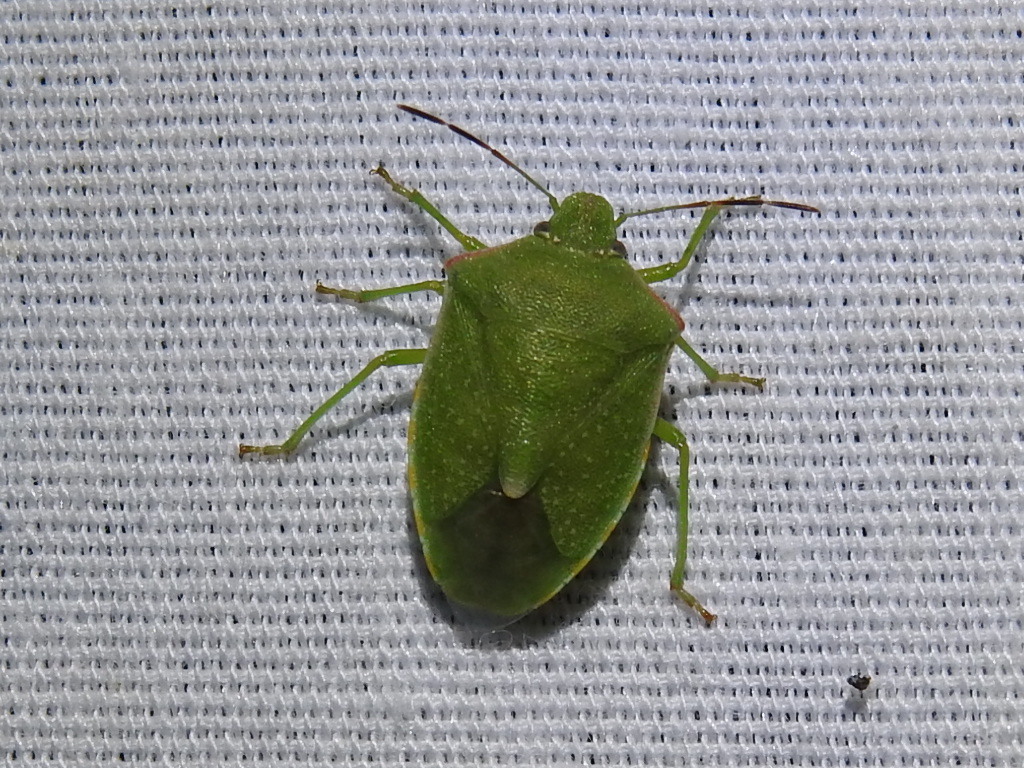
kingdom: Animalia
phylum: Arthropoda
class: Insecta
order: Hemiptera
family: Pentatomidae
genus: Thyanta
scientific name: Thyanta accerra
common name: Stink bug
